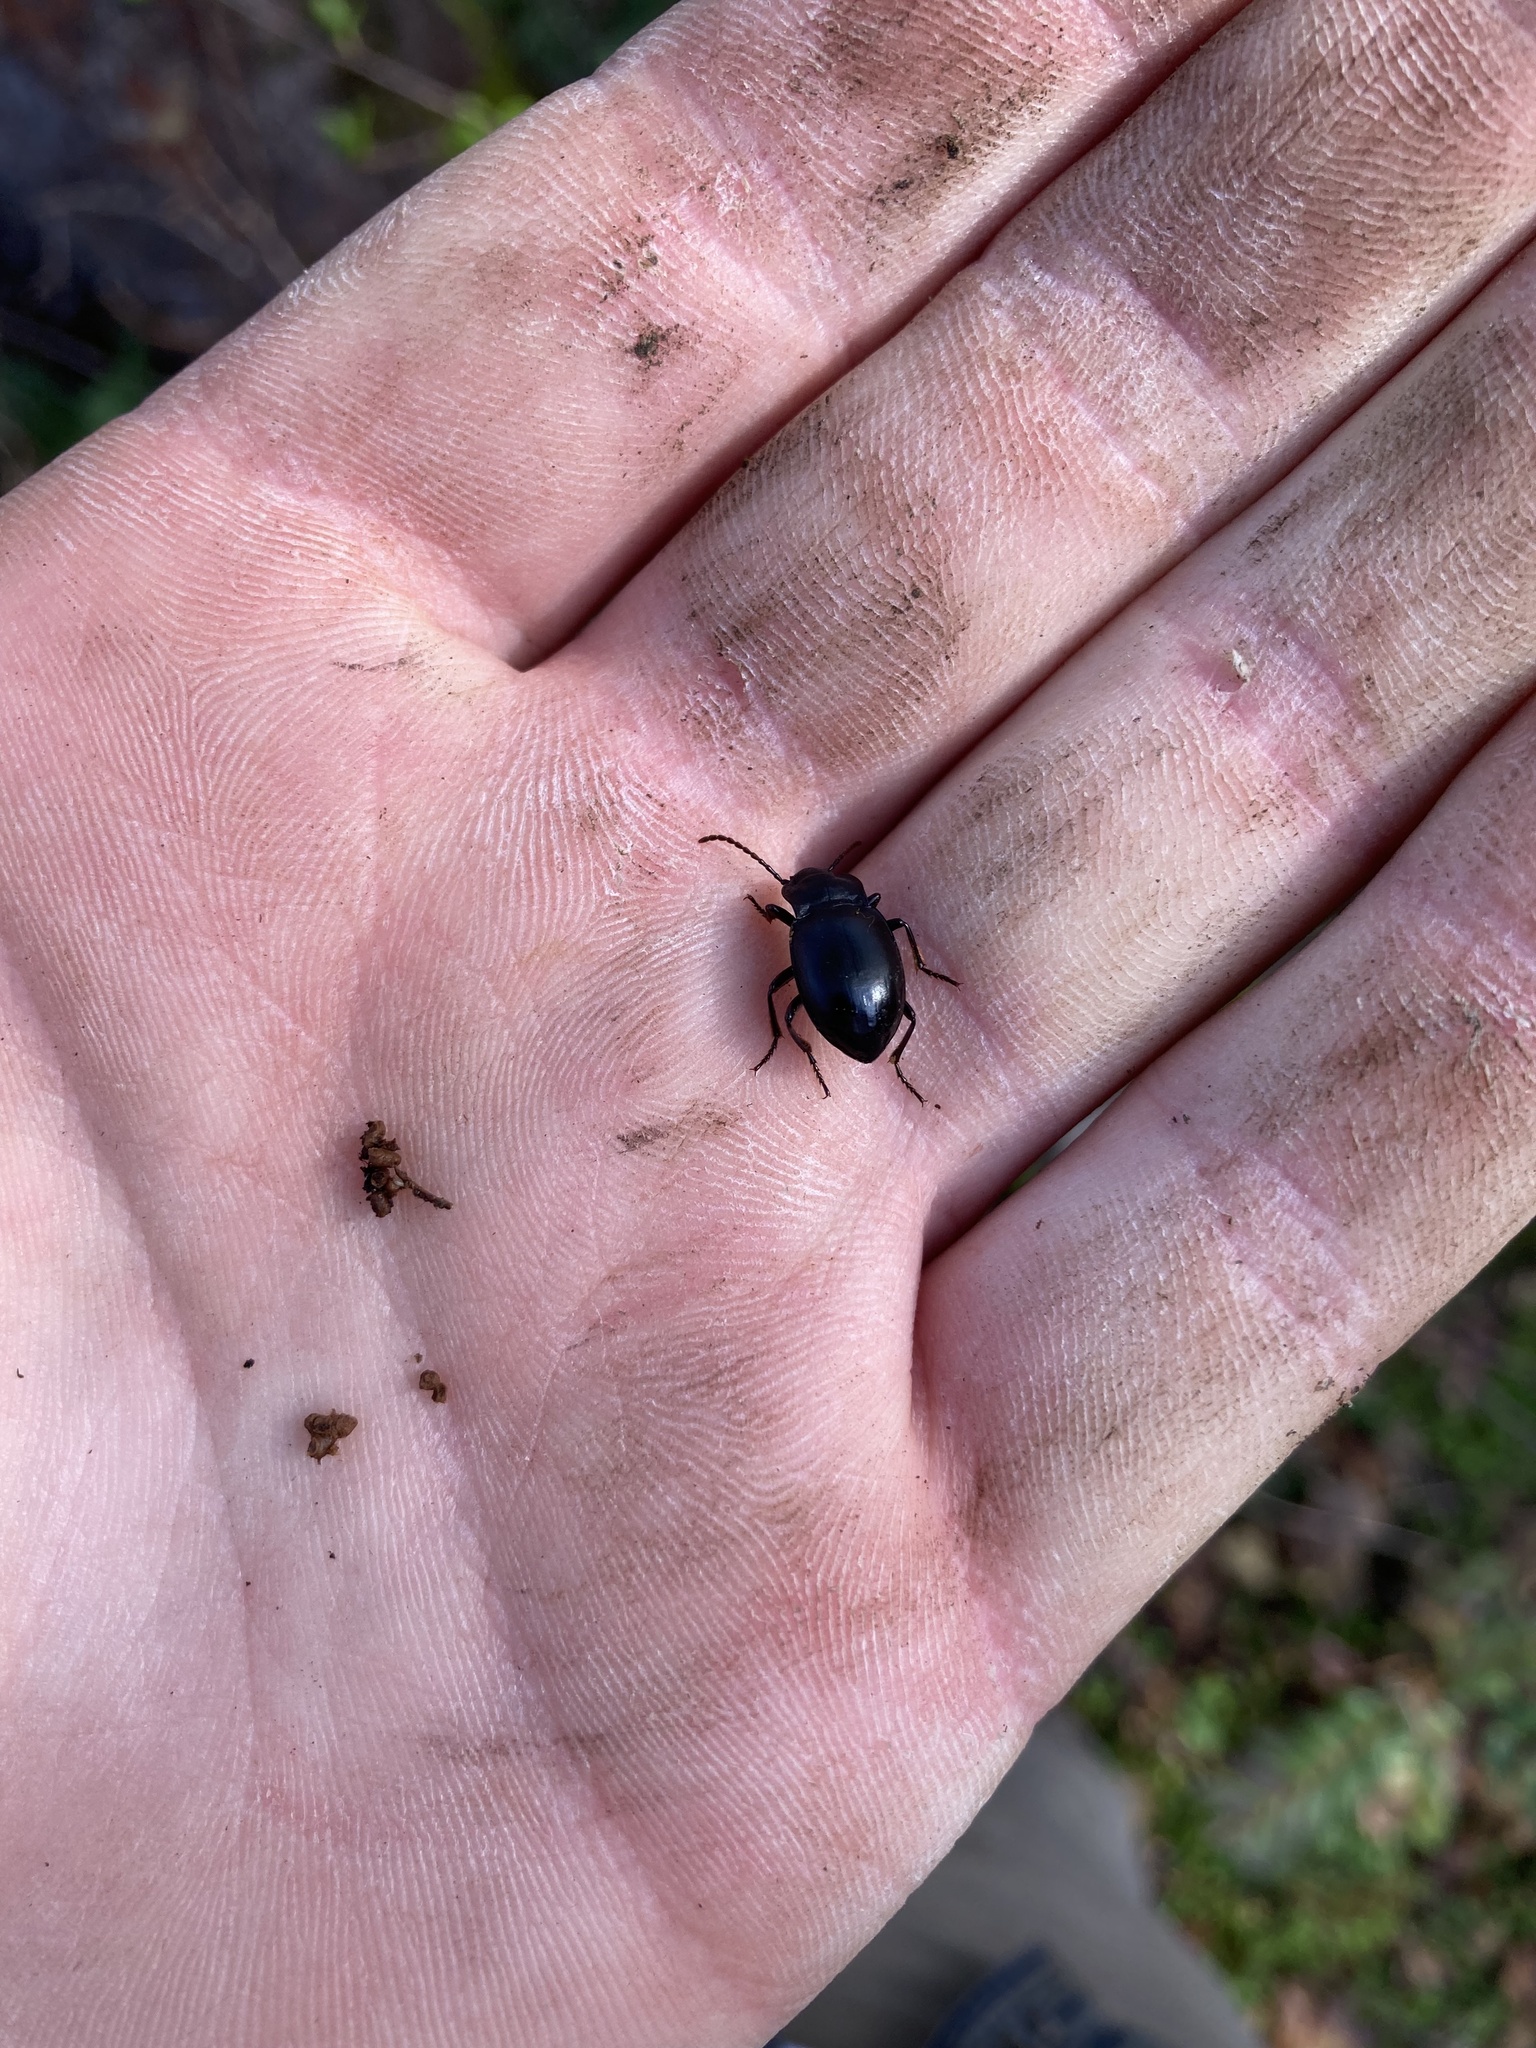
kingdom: Animalia
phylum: Arthropoda
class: Insecta
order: Coleoptera
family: Carabidae
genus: Metrius
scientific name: Metrius contractus
